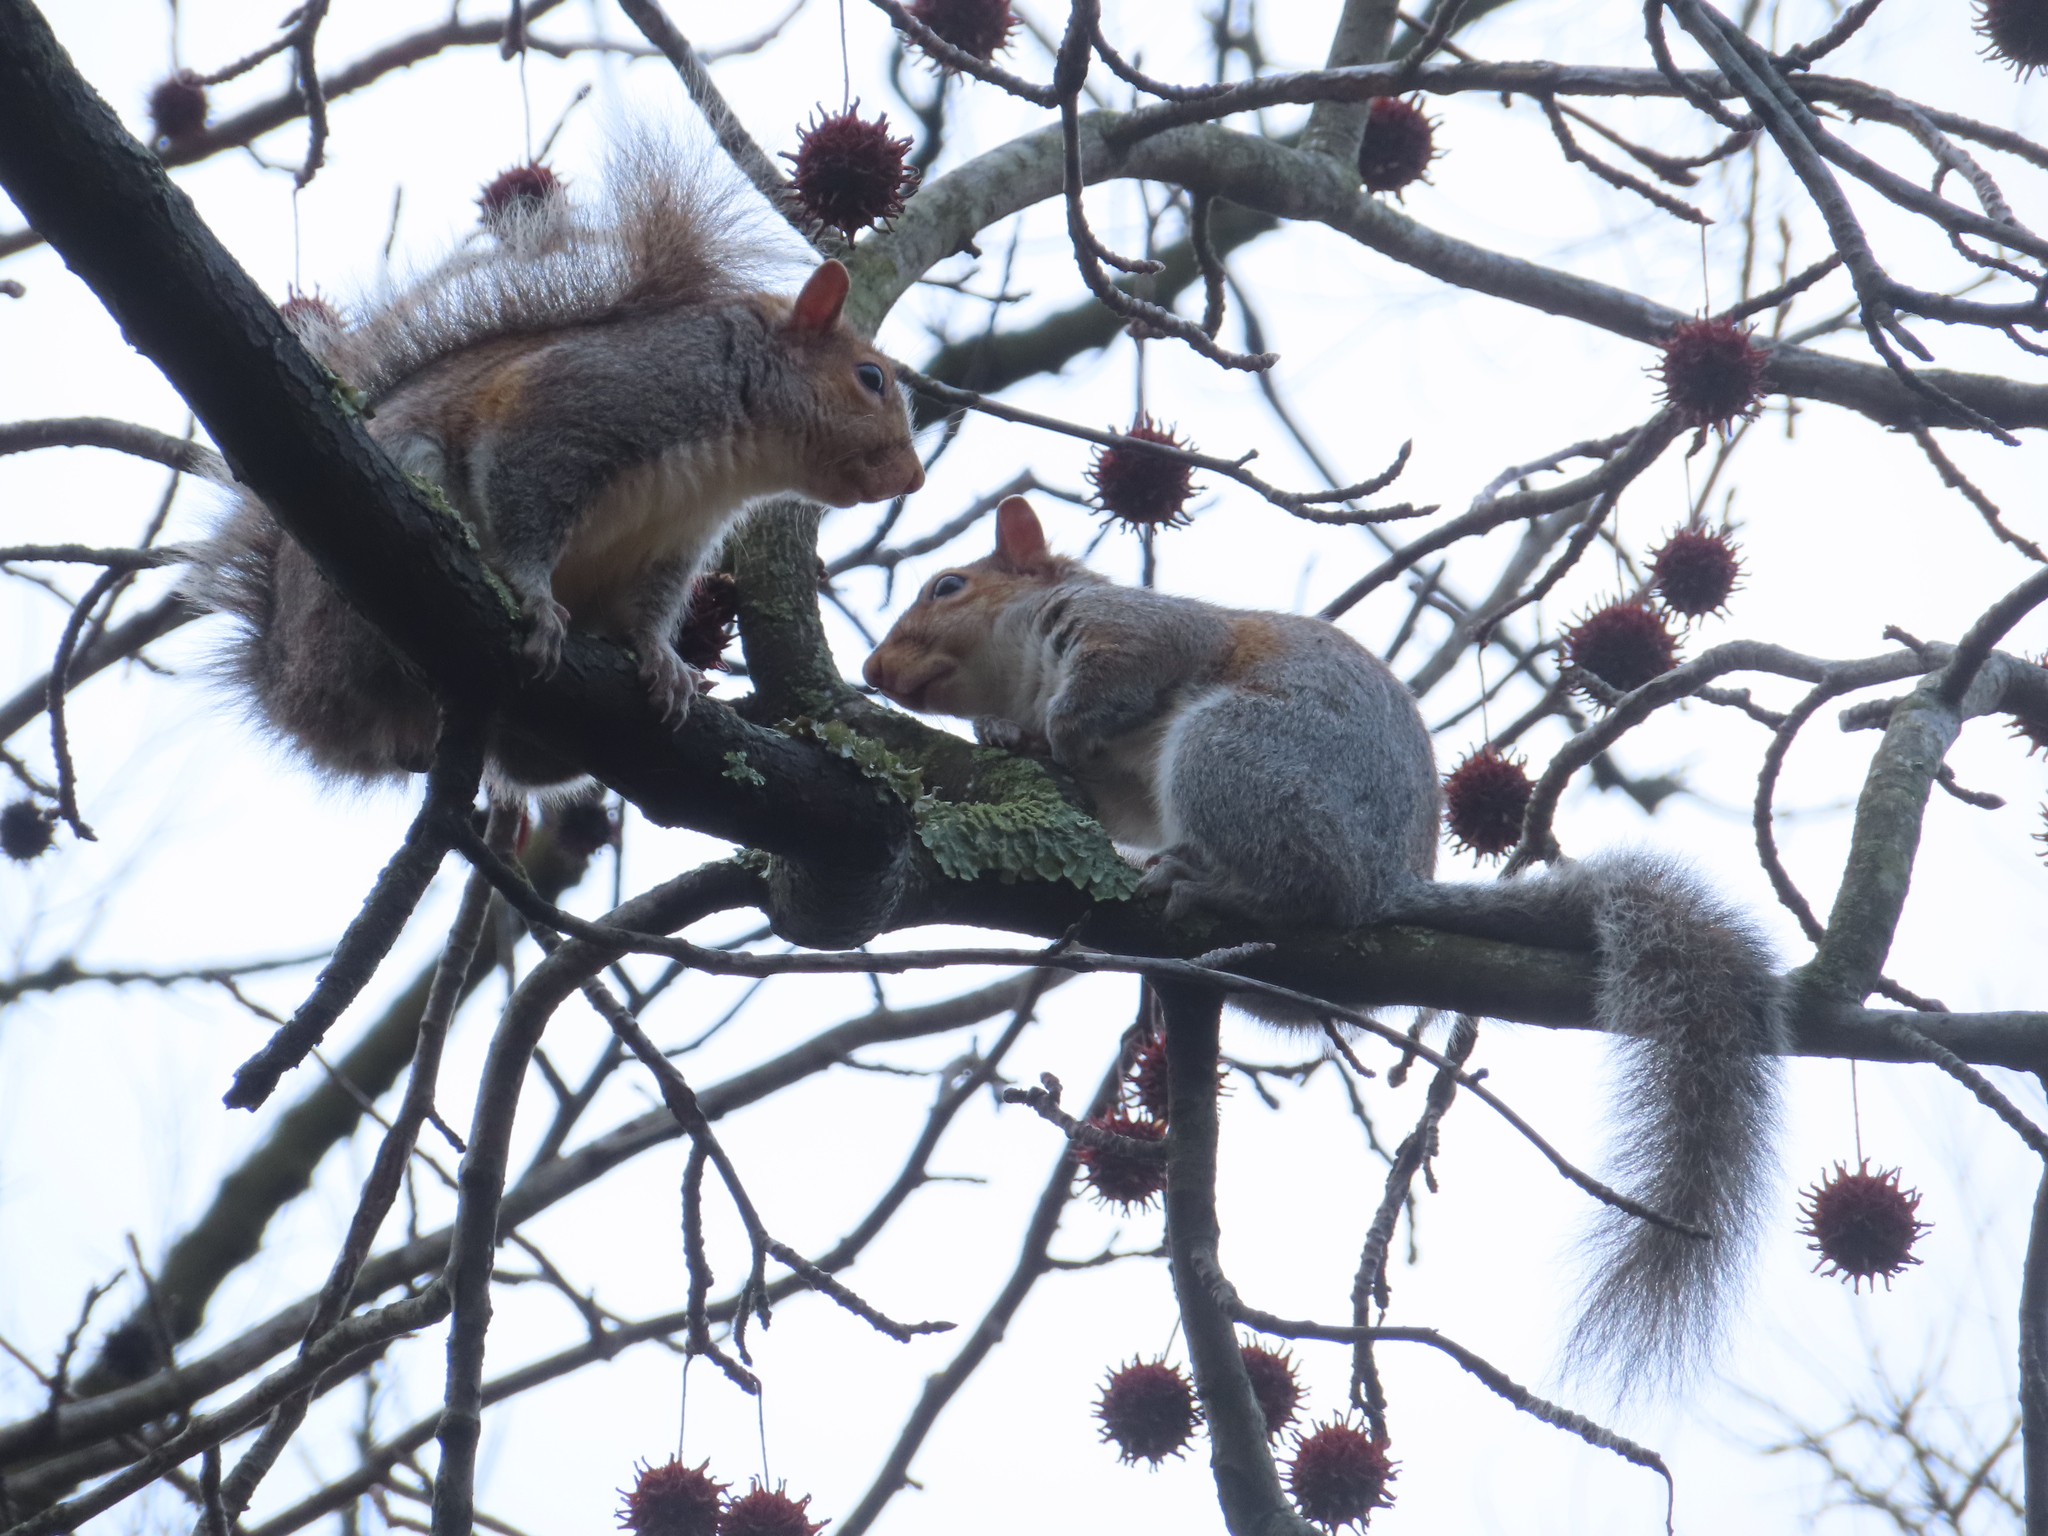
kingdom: Animalia
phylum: Chordata
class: Mammalia
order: Rodentia
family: Sciuridae
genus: Sciurus
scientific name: Sciurus carolinensis
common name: Eastern gray squirrel
